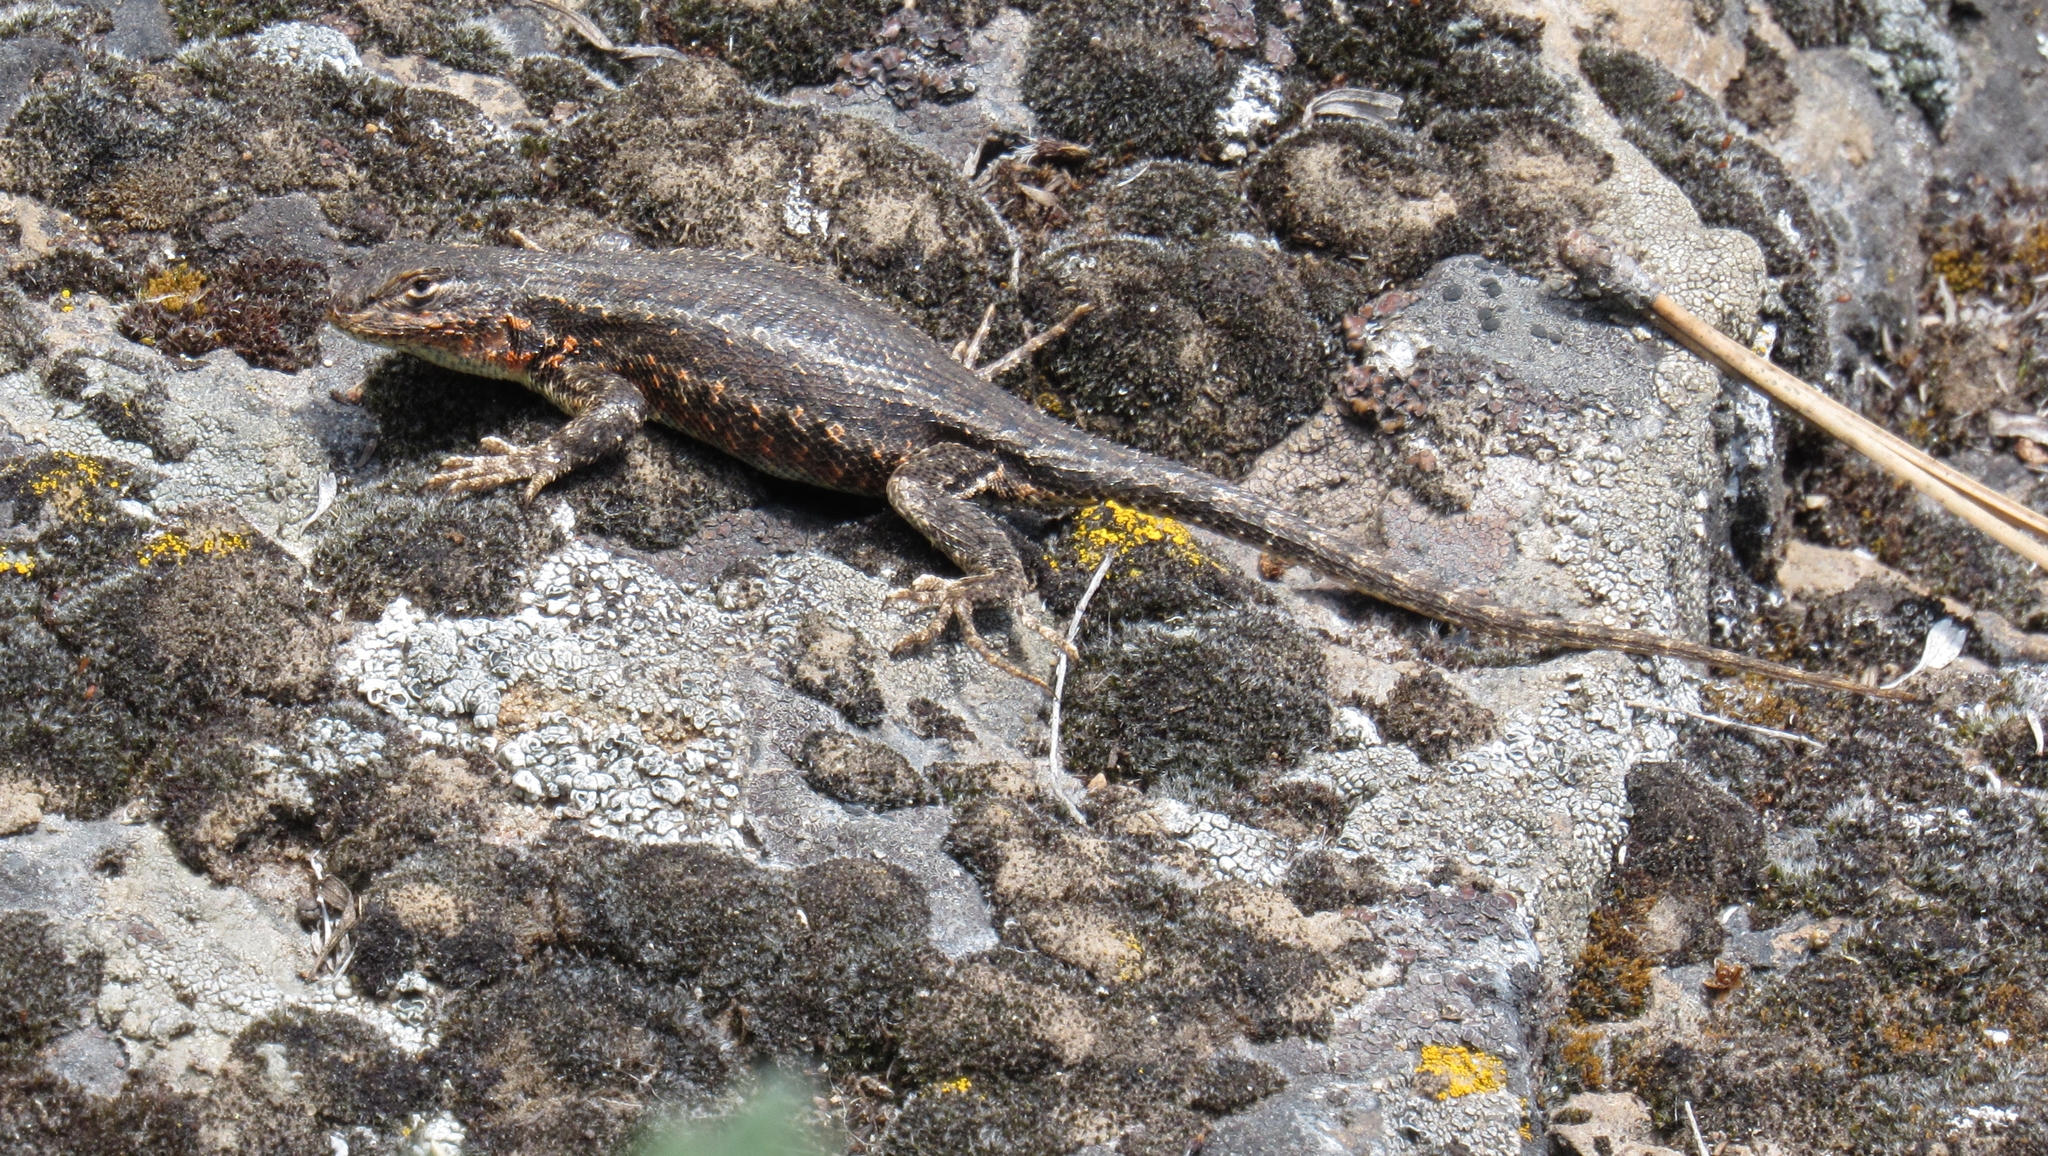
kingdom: Animalia
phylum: Chordata
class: Squamata
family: Phrynosomatidae
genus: Sceloporus
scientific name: Sceloporus graciosus
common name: Sagebrush lizard
